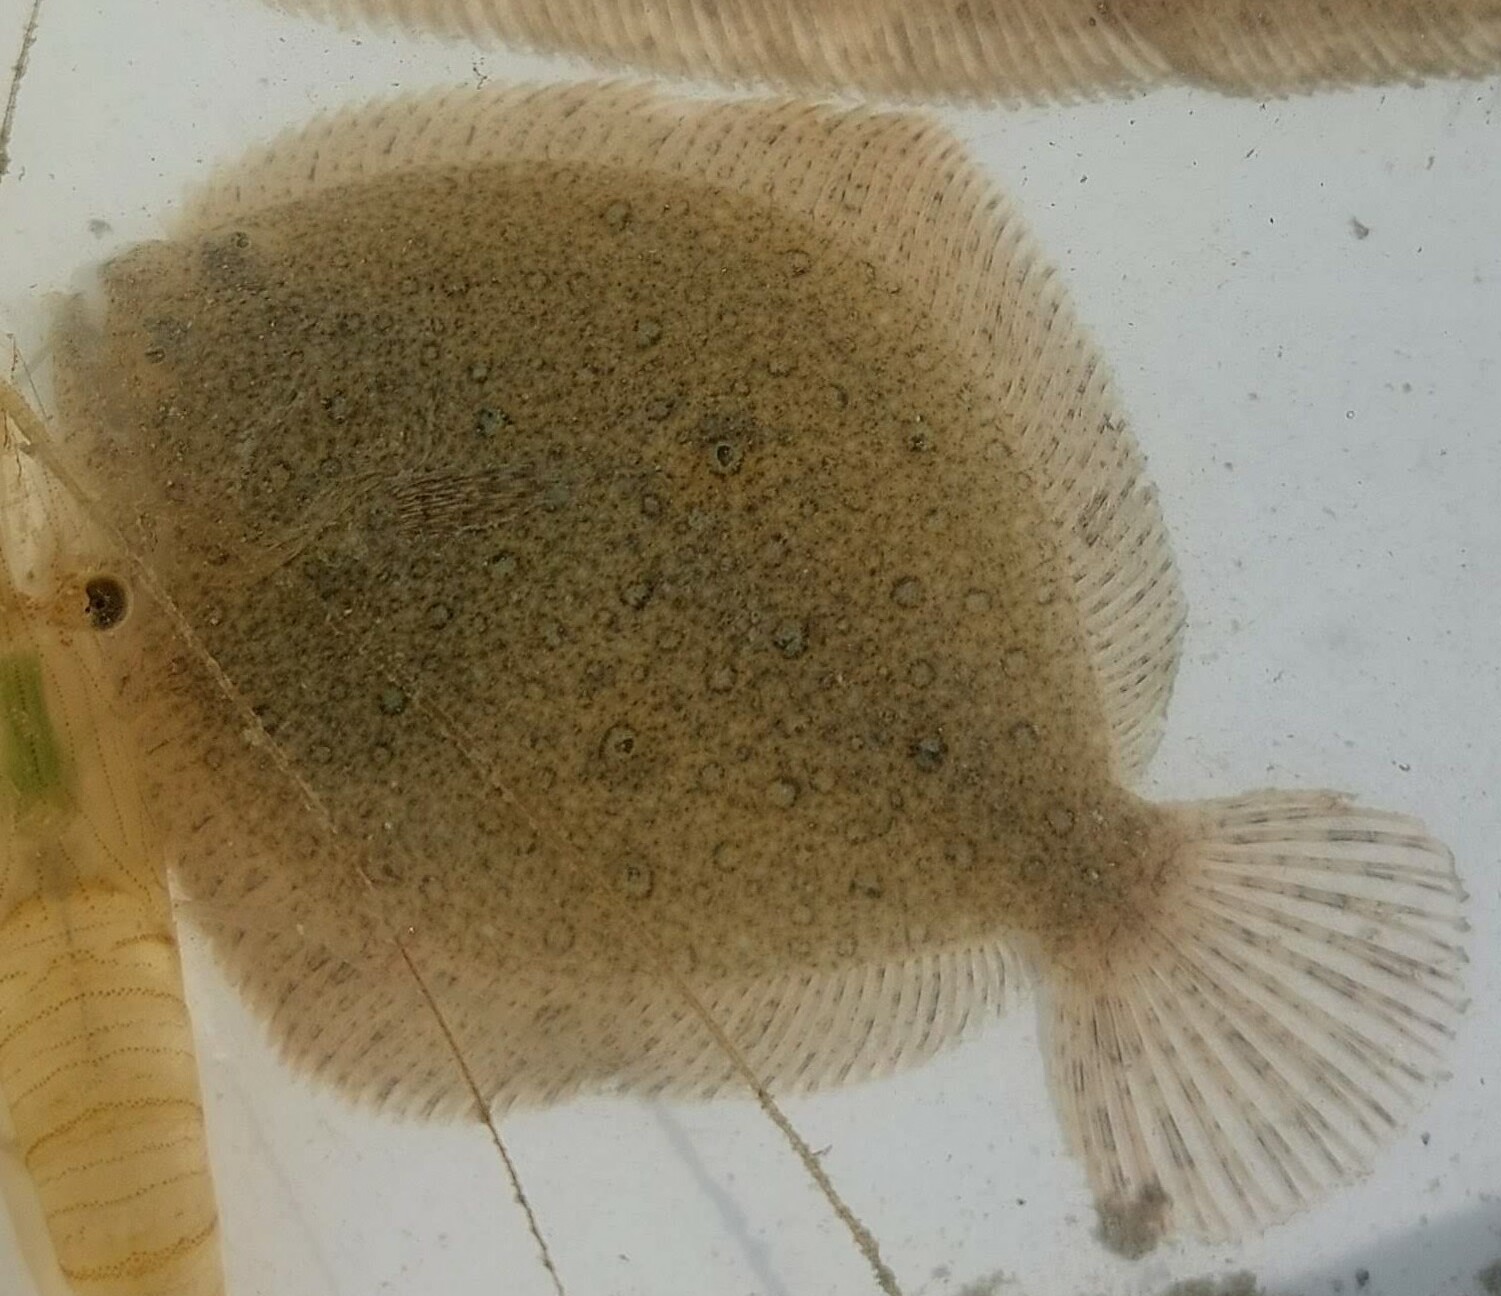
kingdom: Animalia
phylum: Chordata
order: Pleuronectiformes
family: Scophthalmidae
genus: Scophthalmus
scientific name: Scophthalmus maximus
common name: Turbot
